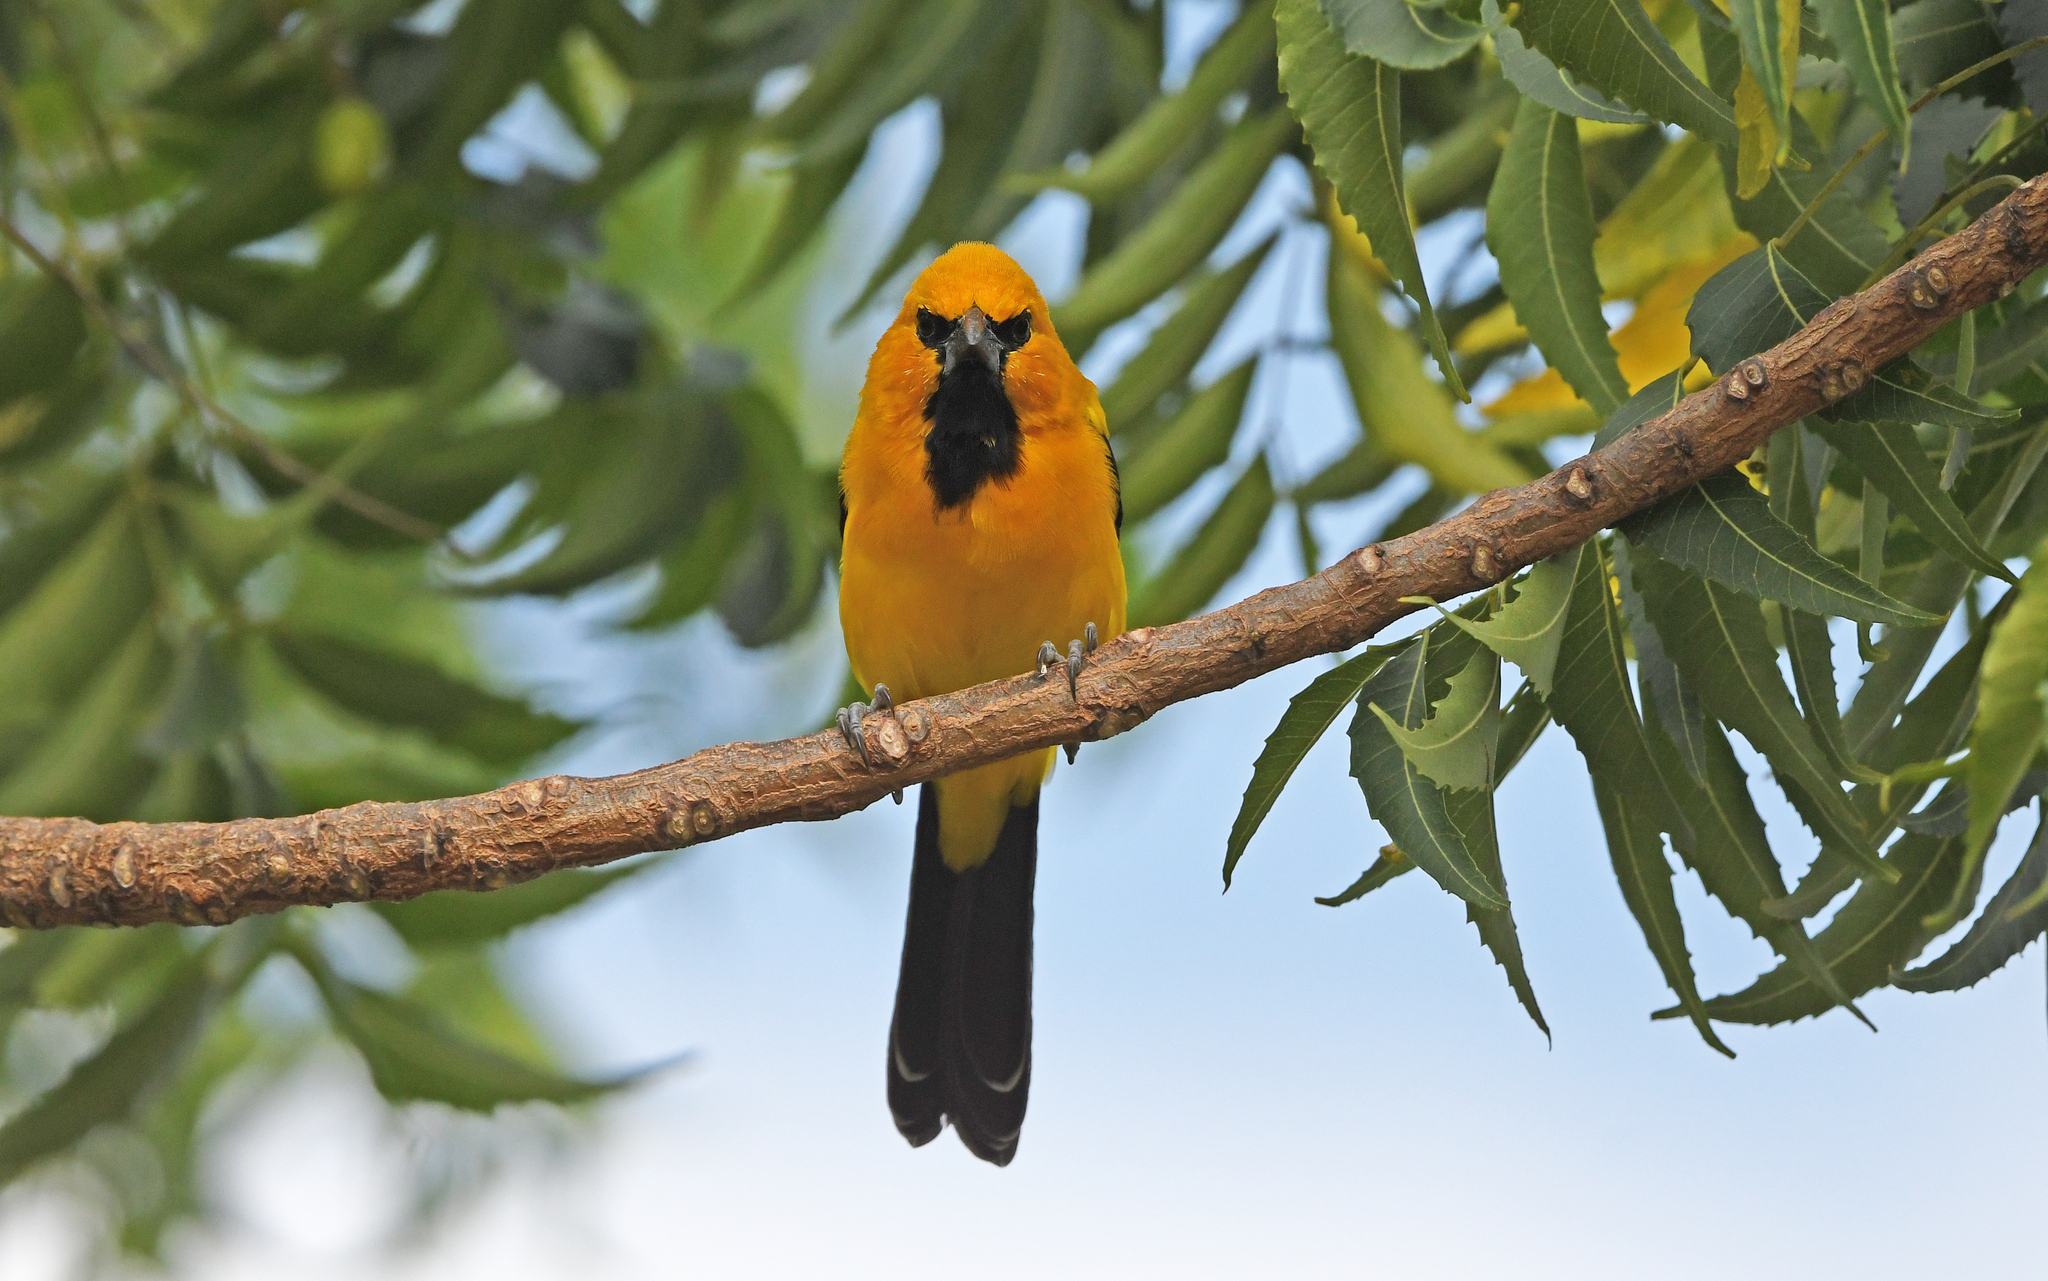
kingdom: Animalia
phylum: Chordata
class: Aves
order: Passeriformes
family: Icteridae
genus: Icterus
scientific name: Icterus nigrogularis
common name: Yellow oriole
